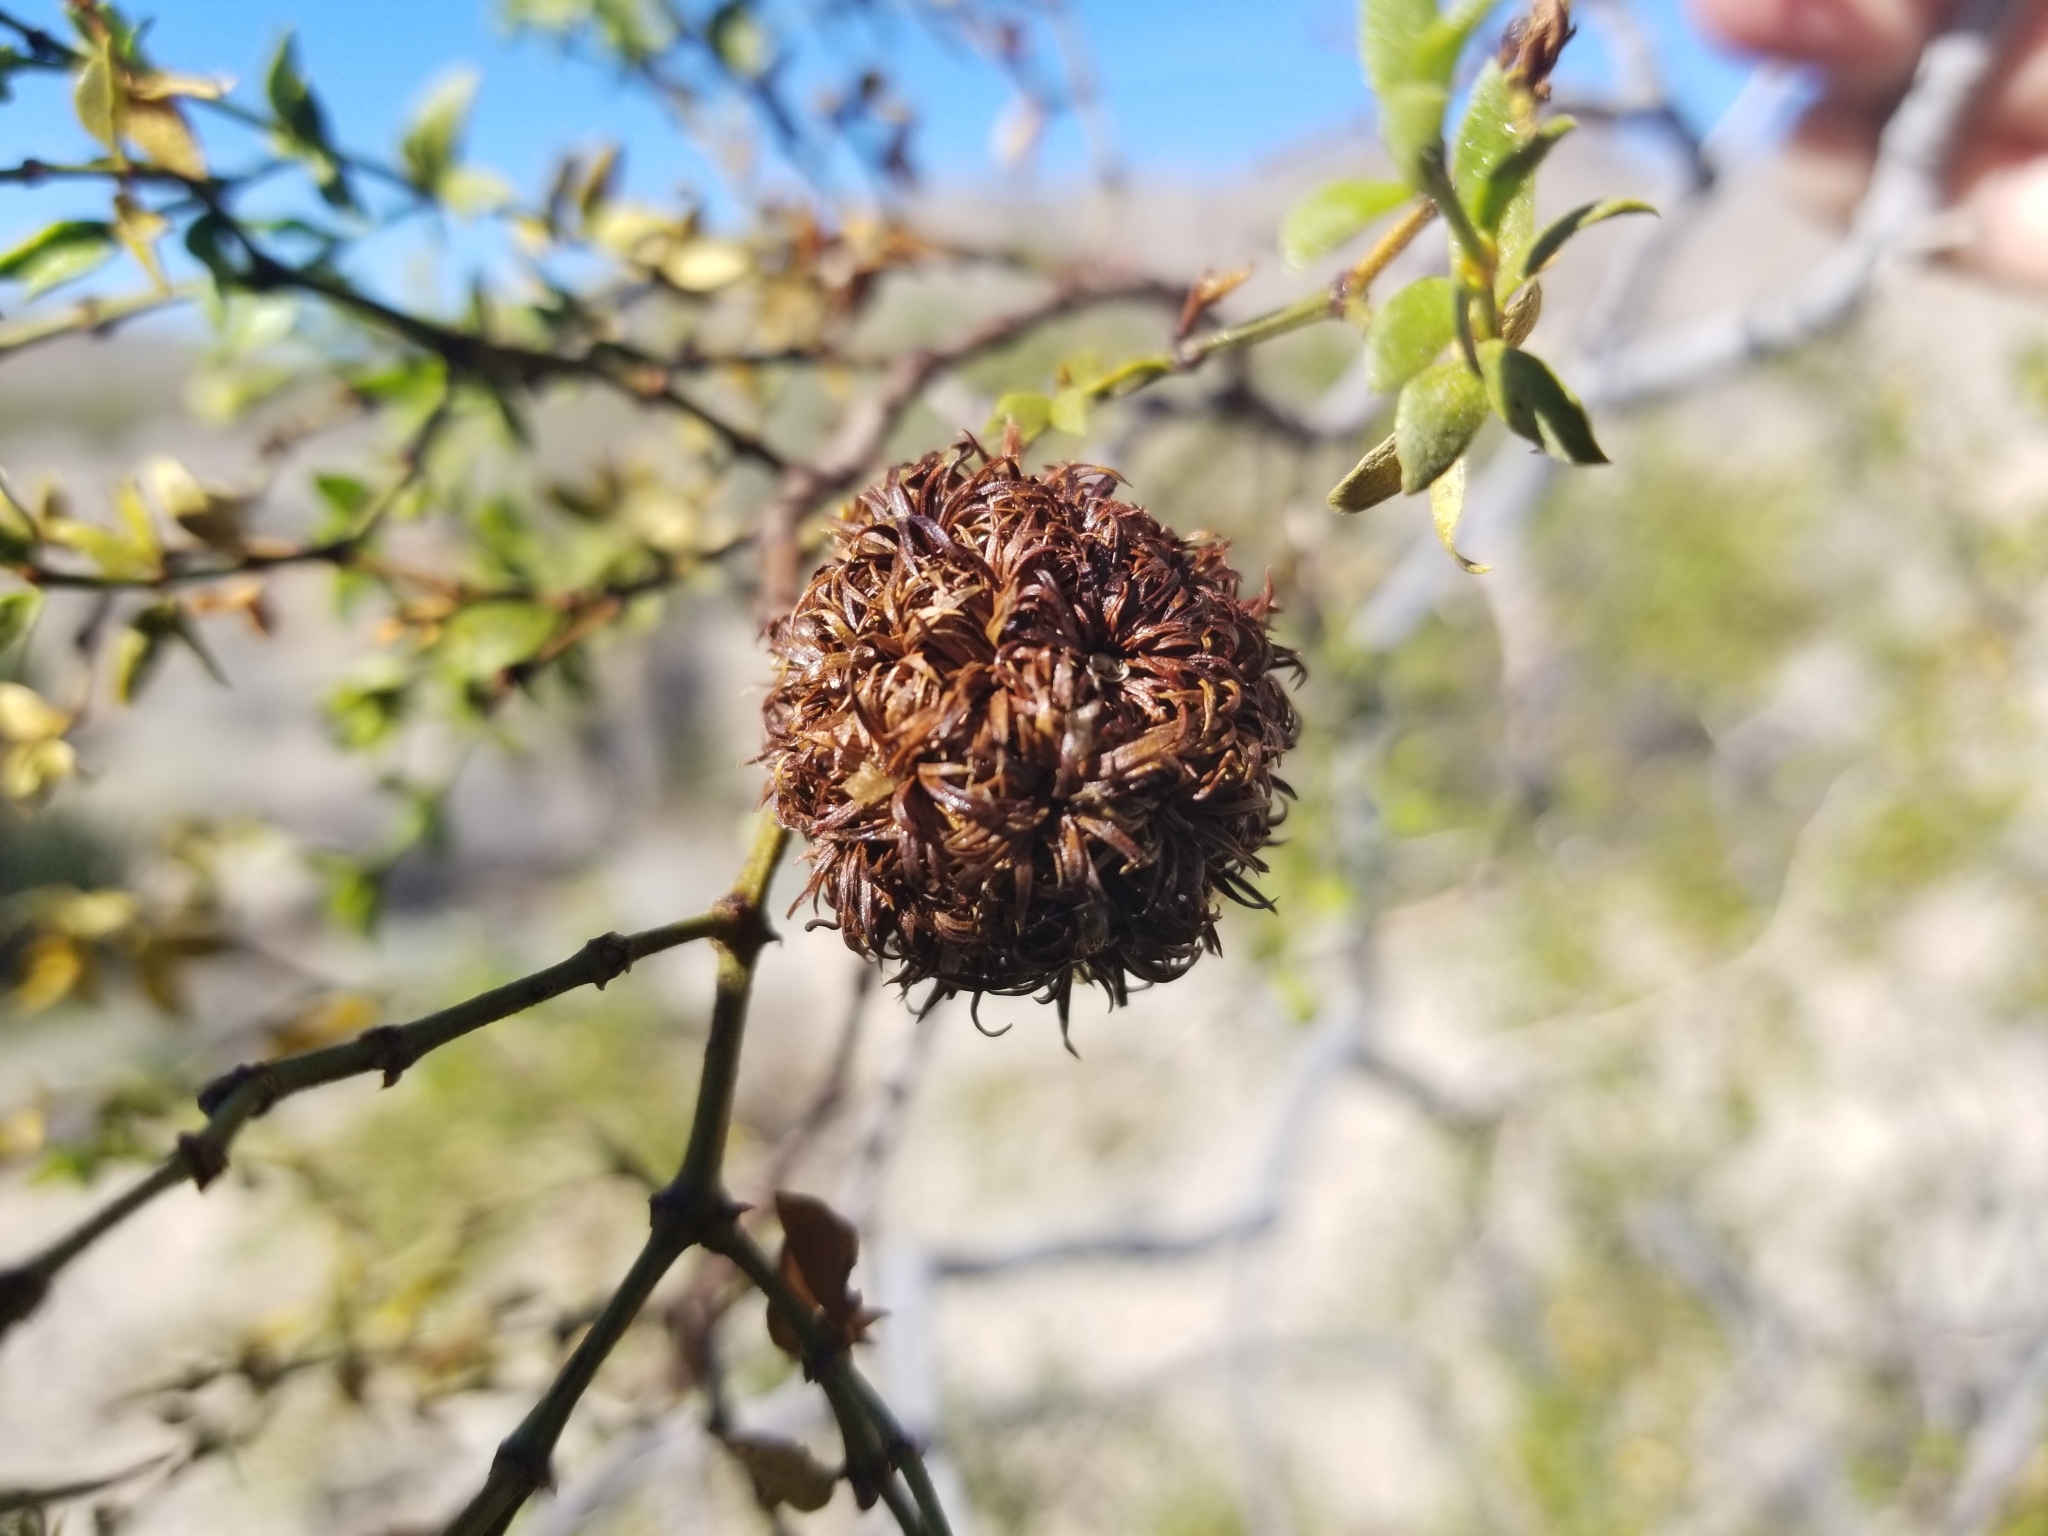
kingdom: Animalia
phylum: Arthropoda
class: Insecta
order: Diptera
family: Cecidomyiidae
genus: Asphondylia
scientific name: Asphondylia auripila
